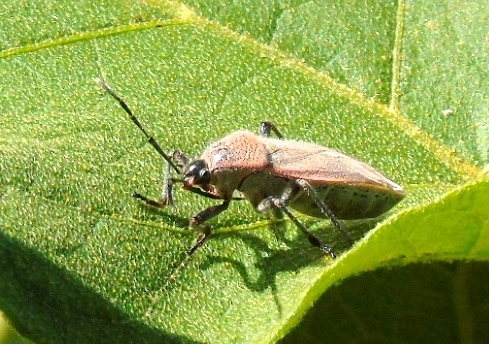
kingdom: Animalia
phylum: Arthropoda
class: Insecta
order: Hemiptera
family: Largidae
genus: Largus
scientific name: Largus
